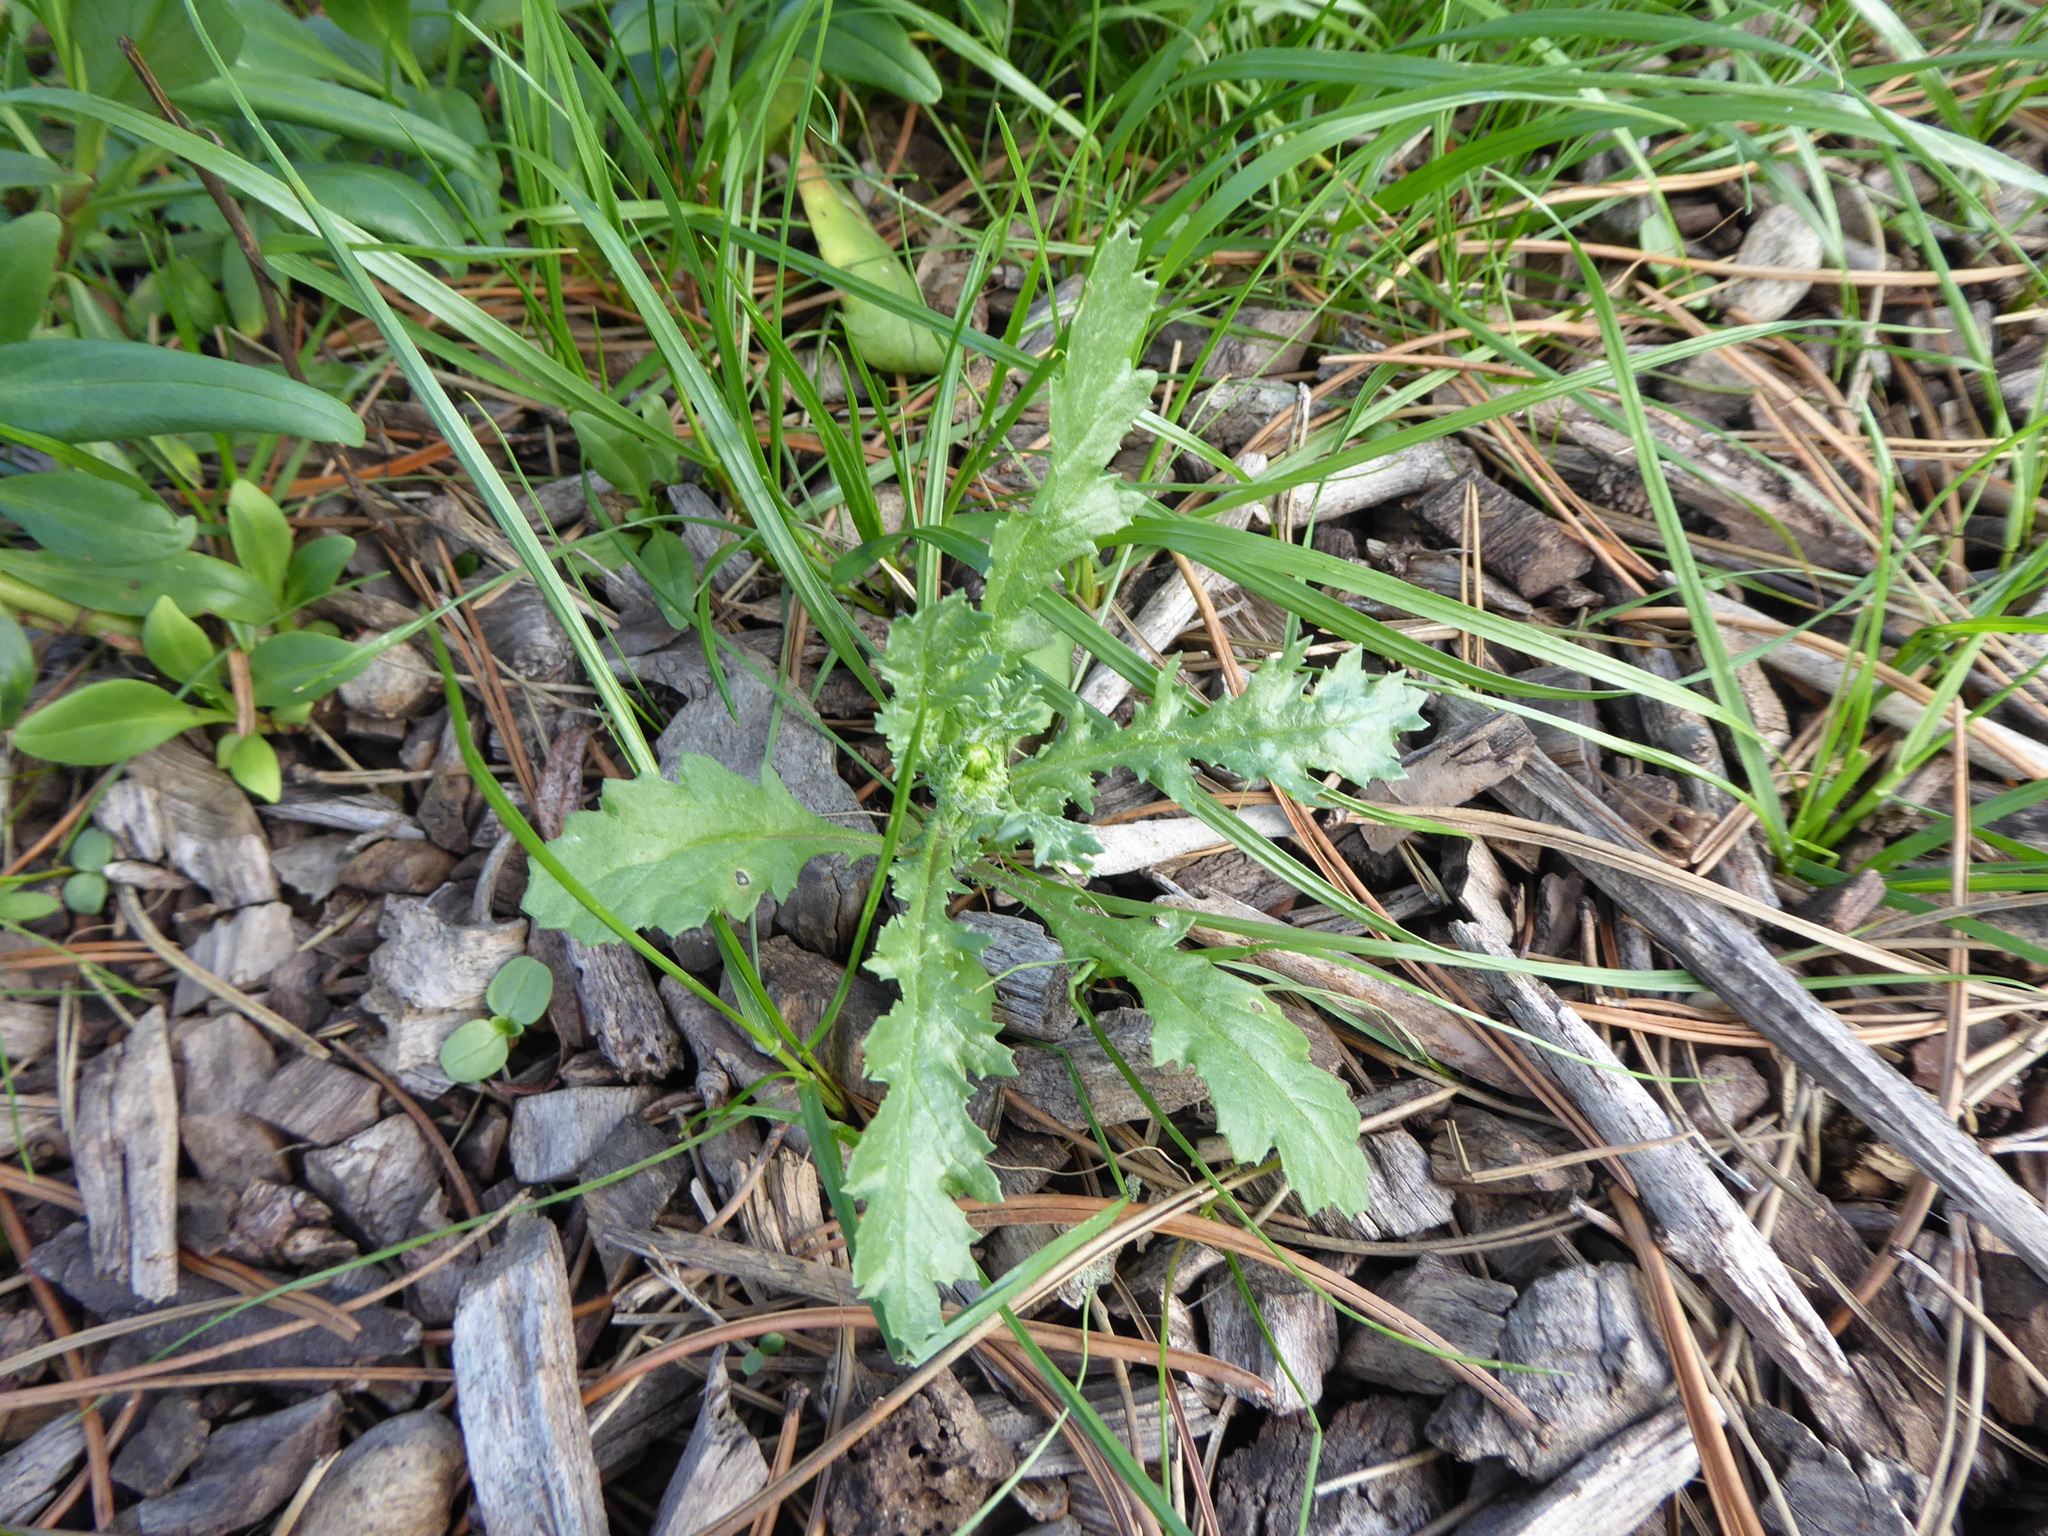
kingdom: Plantae
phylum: Tracheophyta
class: Magnoliopsida
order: Asterales
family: Asteraceae
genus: Senecio
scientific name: Senecio vulgaris
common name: Old-man-in-the-spring
